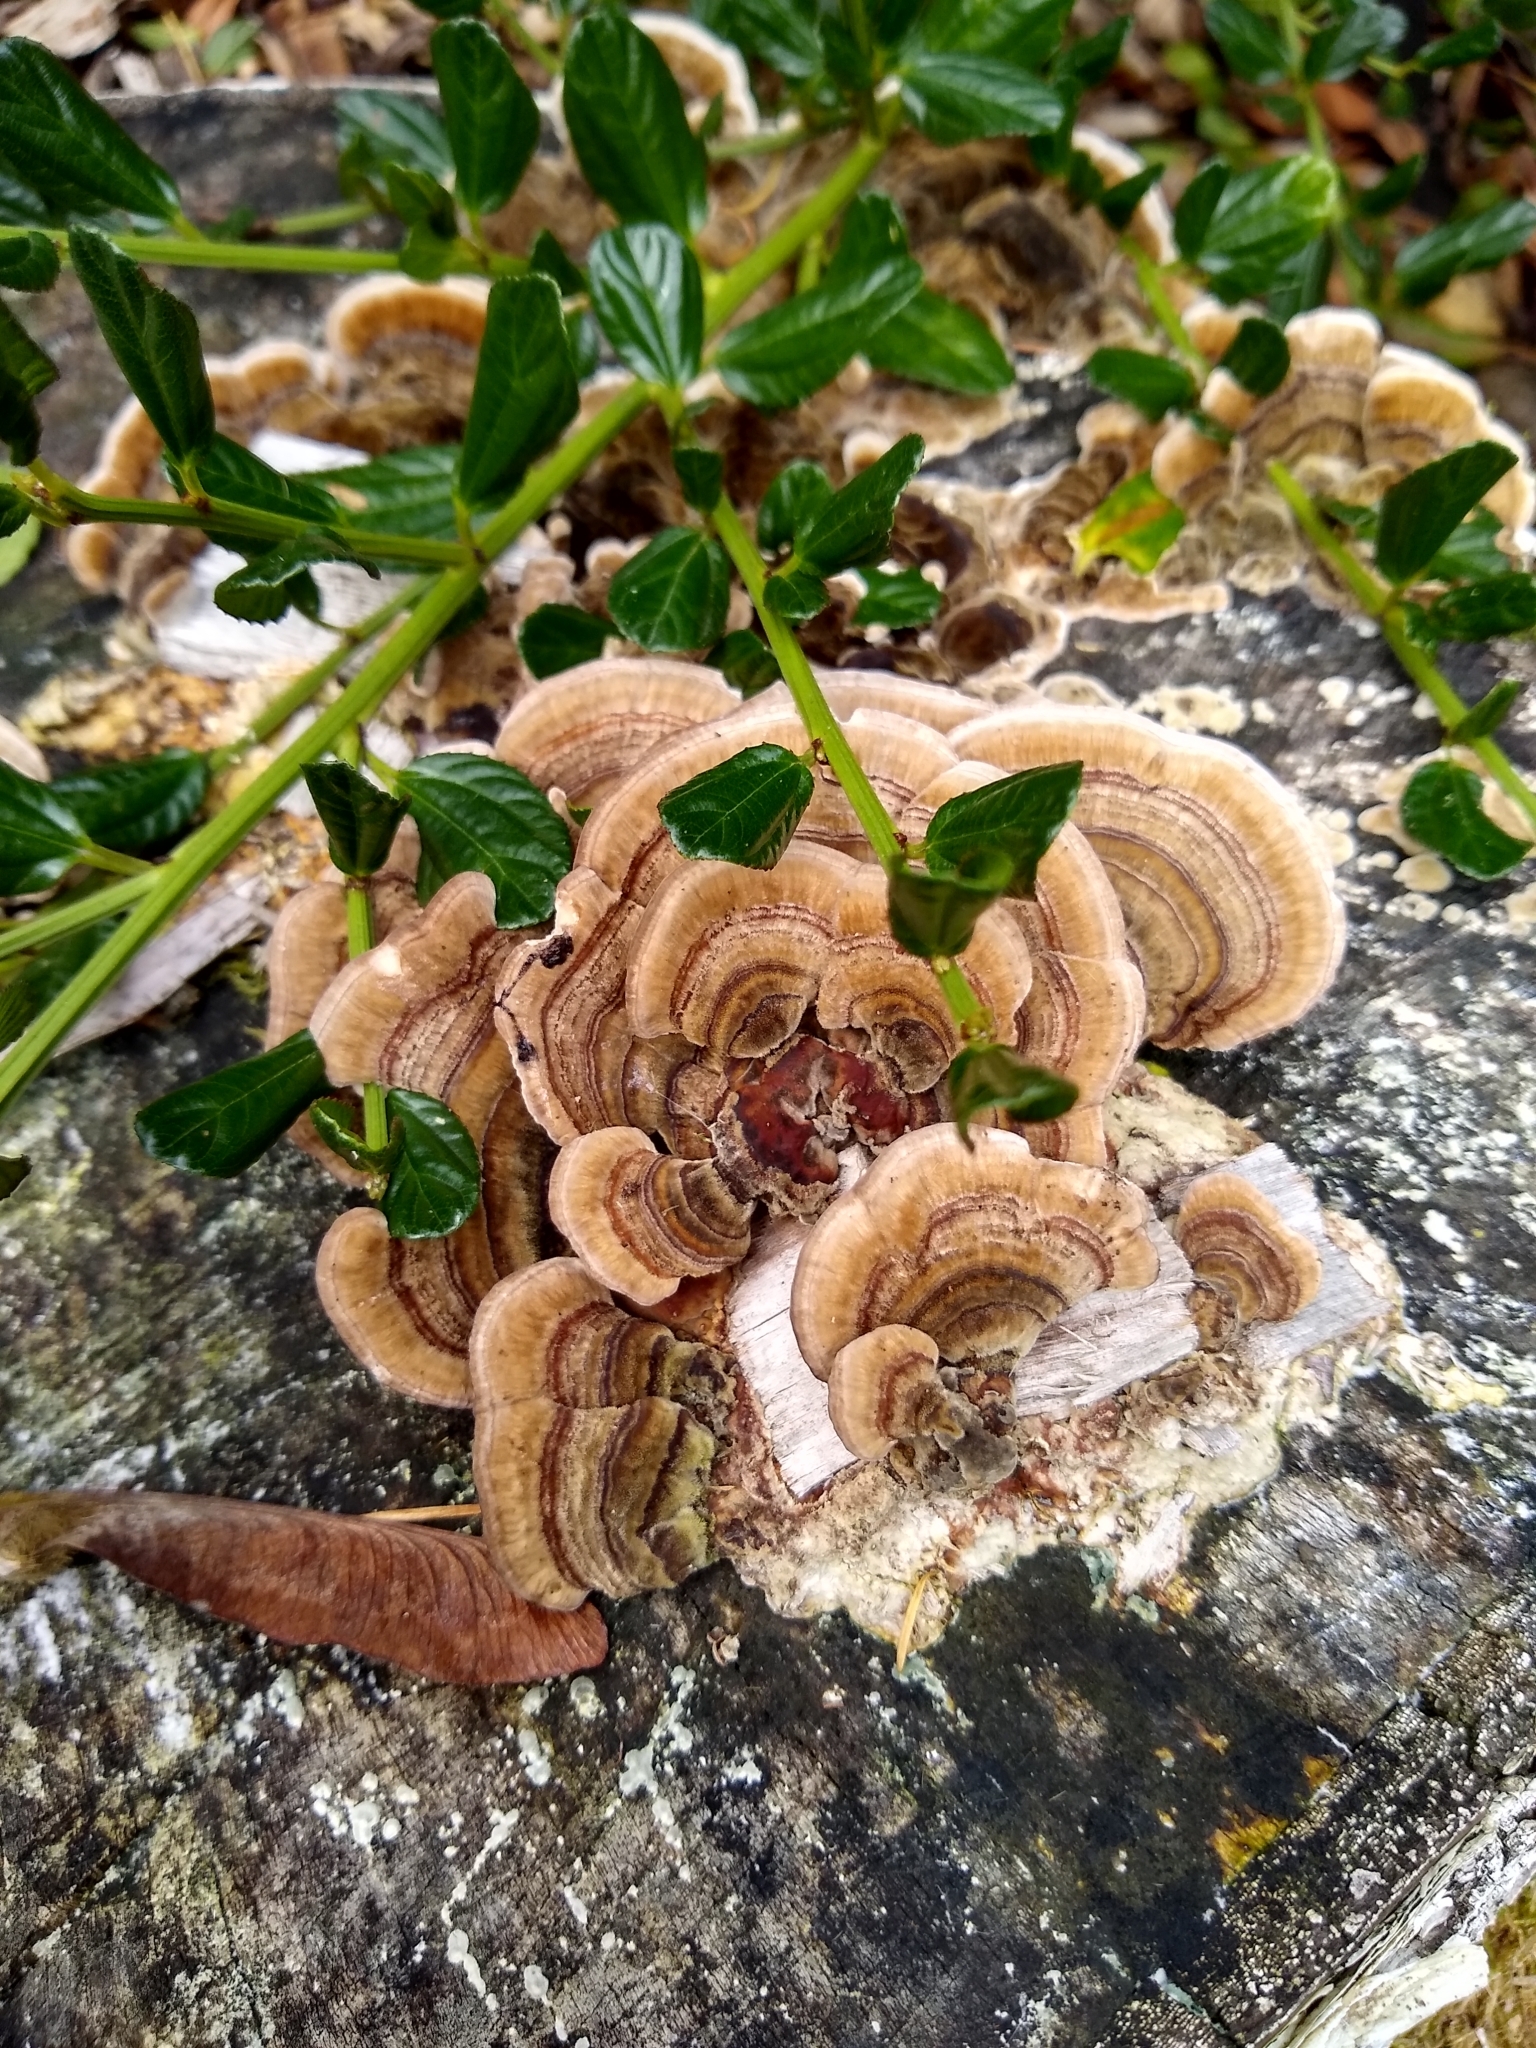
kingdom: Fungi
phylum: Basidiomycota
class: Agaricomycetes
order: Polyporales
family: Polyporaceae
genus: Trametes
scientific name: Trametes versicolor
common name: Turkeytail
